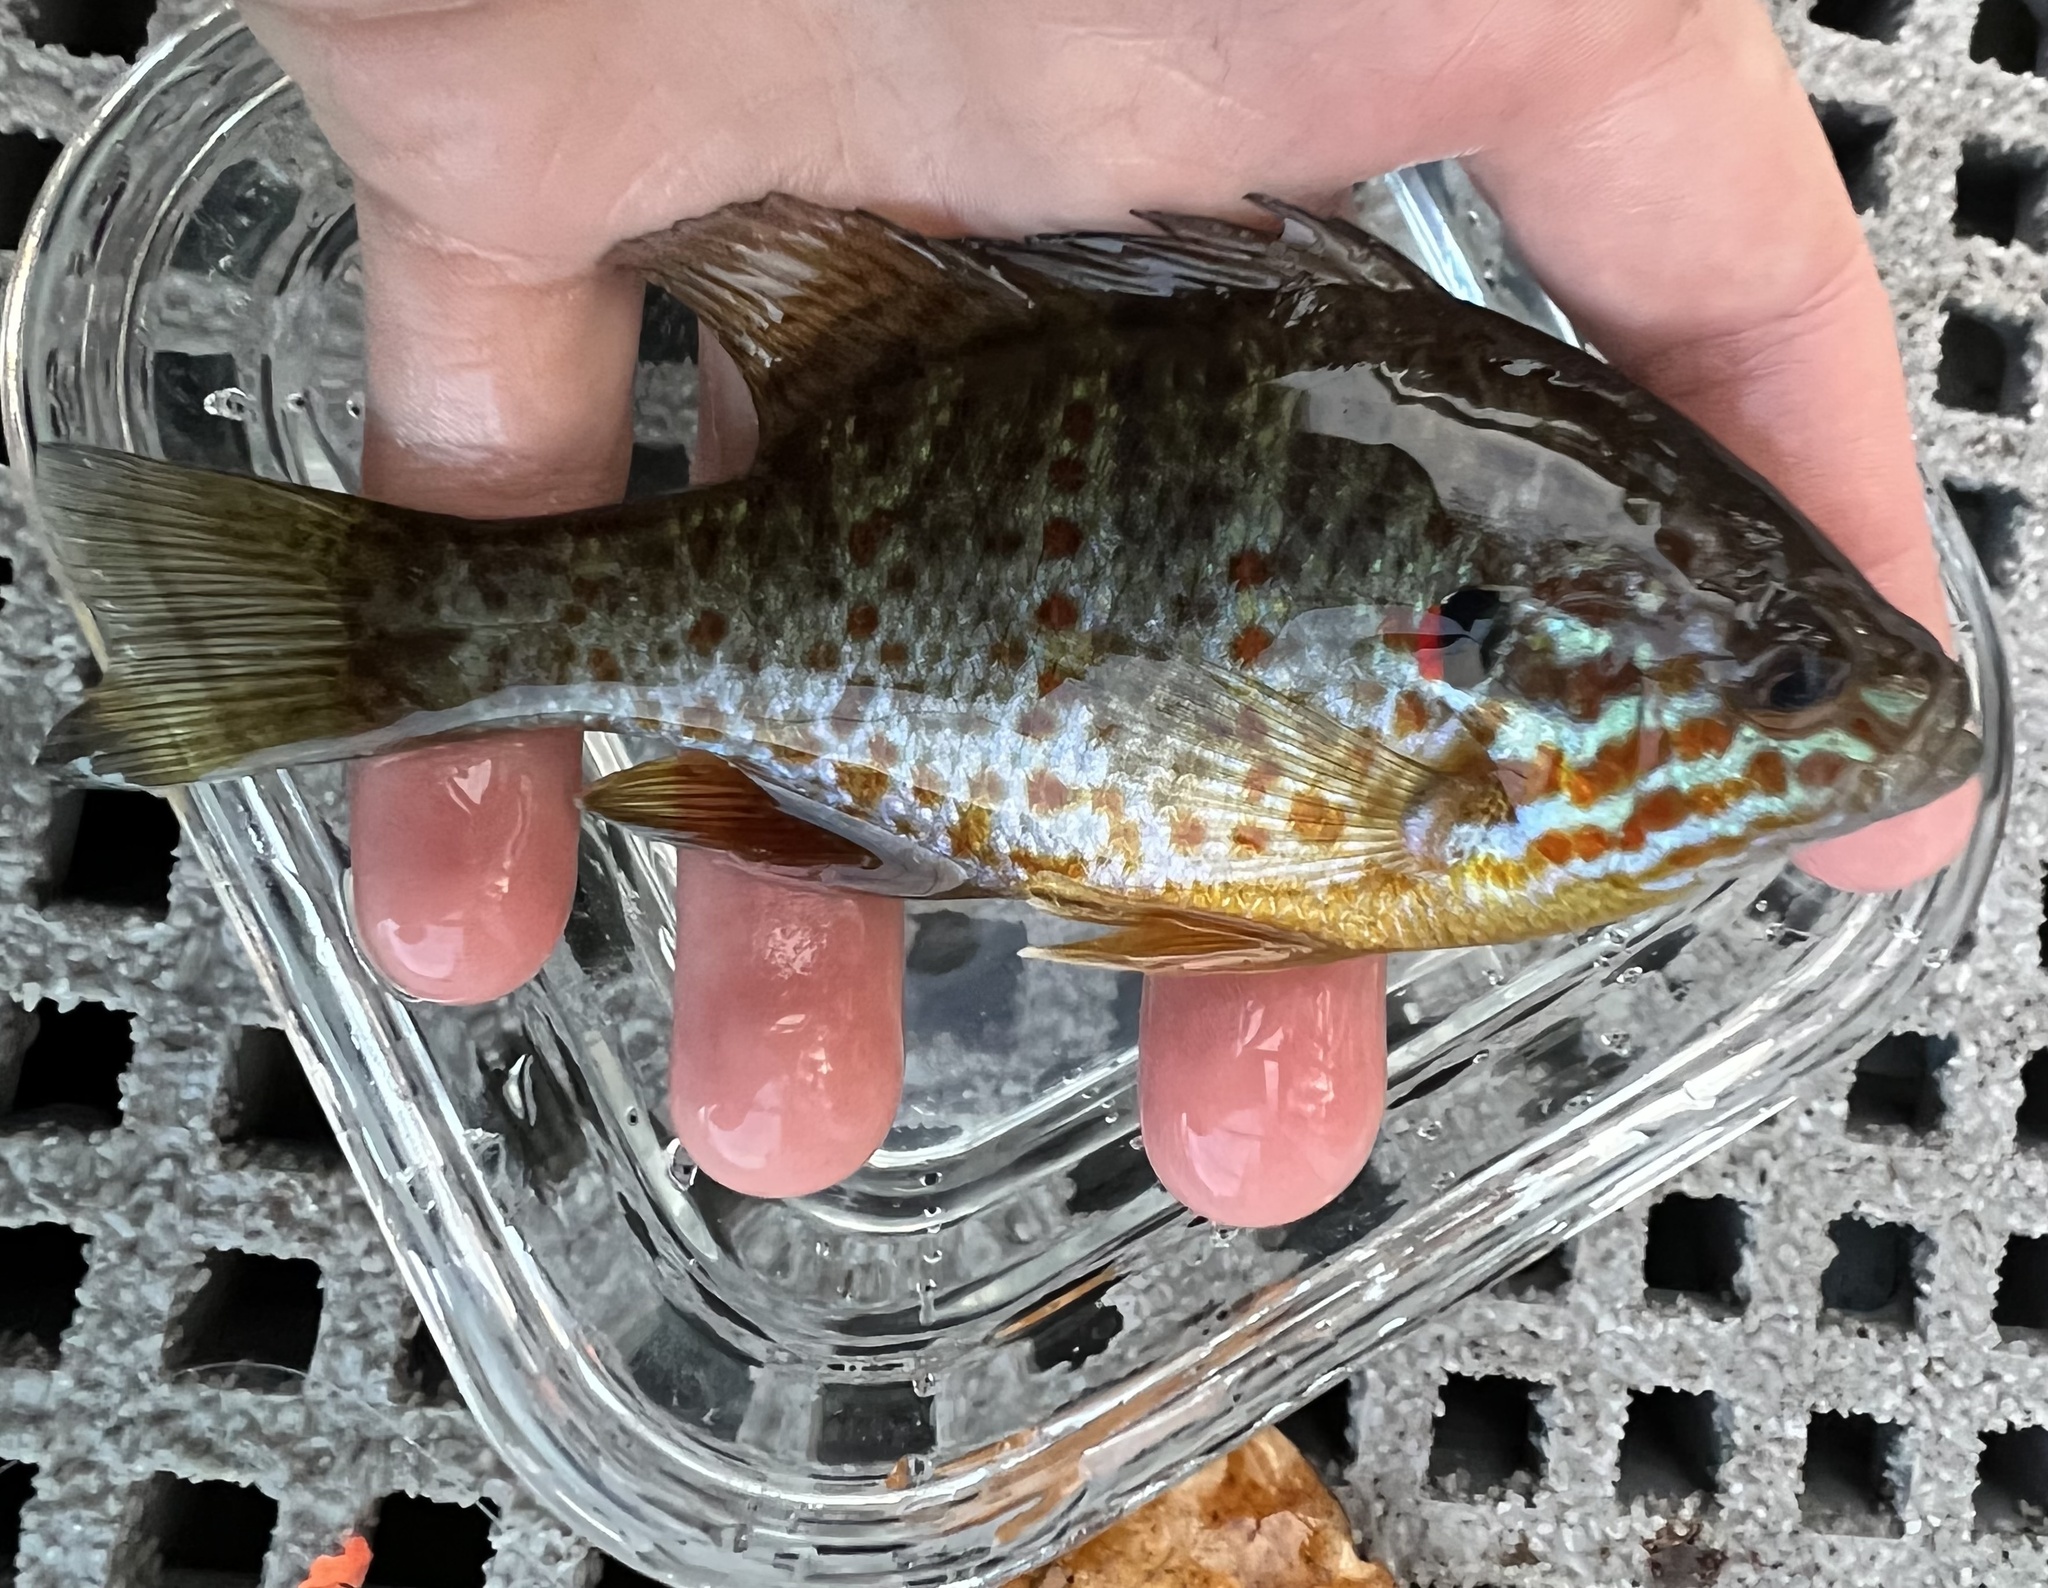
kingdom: Animalia
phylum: Chordata
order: Perciformes
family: Centrarchidae
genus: Lepomis
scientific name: Lepomis gibbosus
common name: Pumpkinseed
